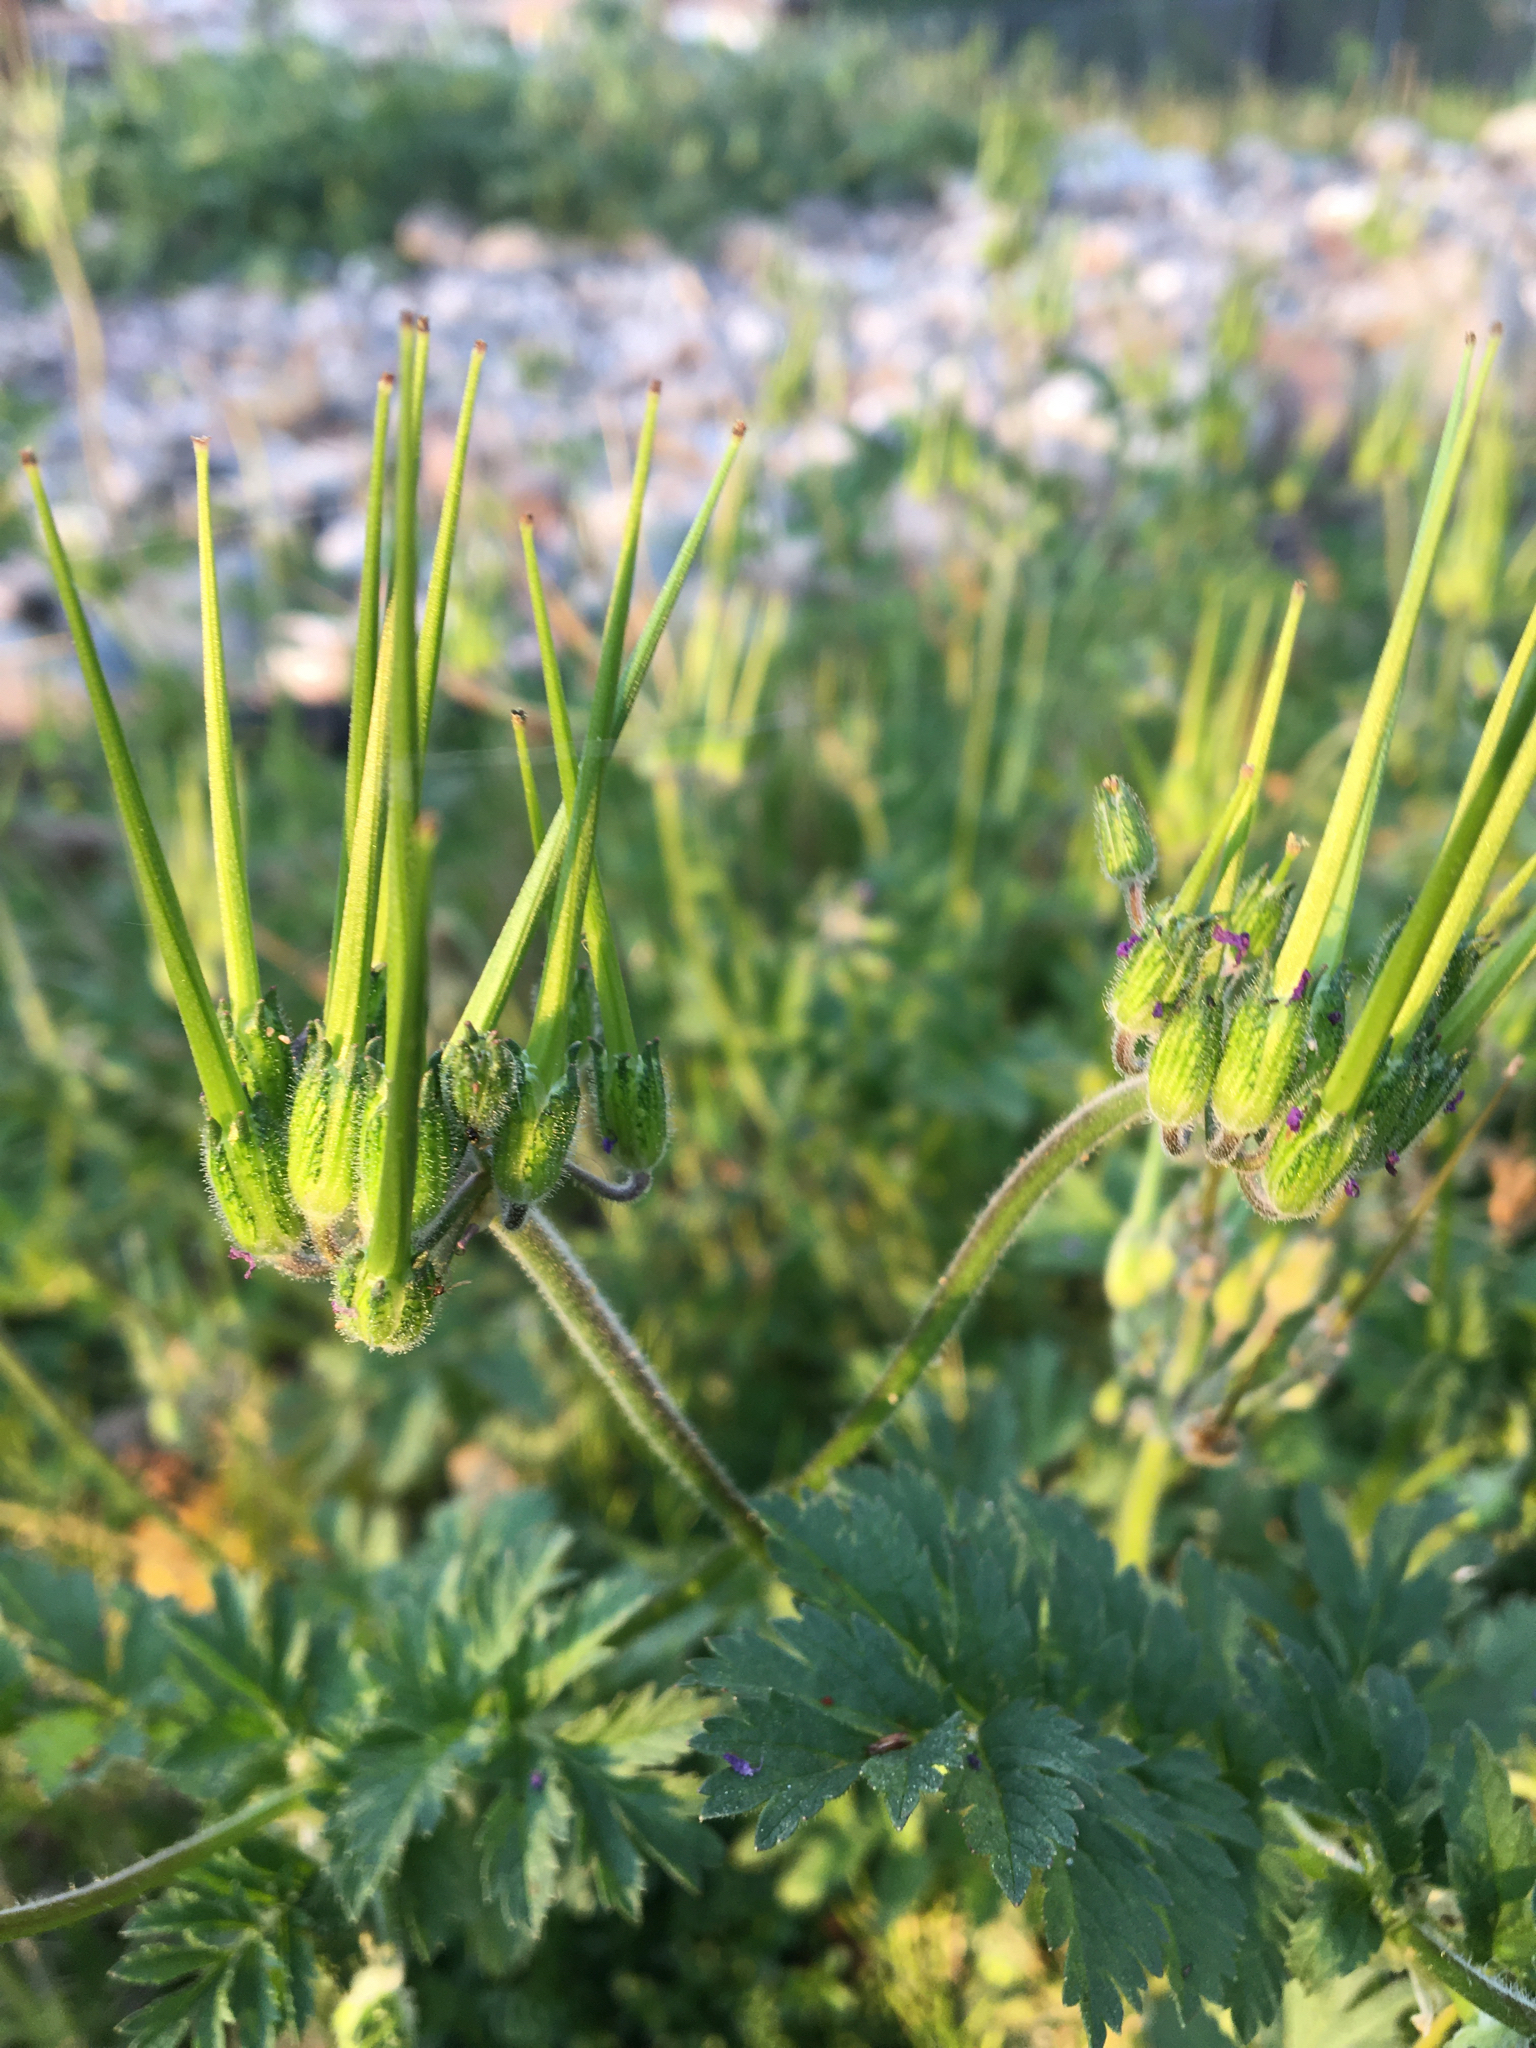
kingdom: Plantae
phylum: Tracheophyta
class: Magnoliopsida
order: Geraniales
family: Geraniaceae
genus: Erodium
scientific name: Erodium moschatum
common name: Musk stork's-bill
